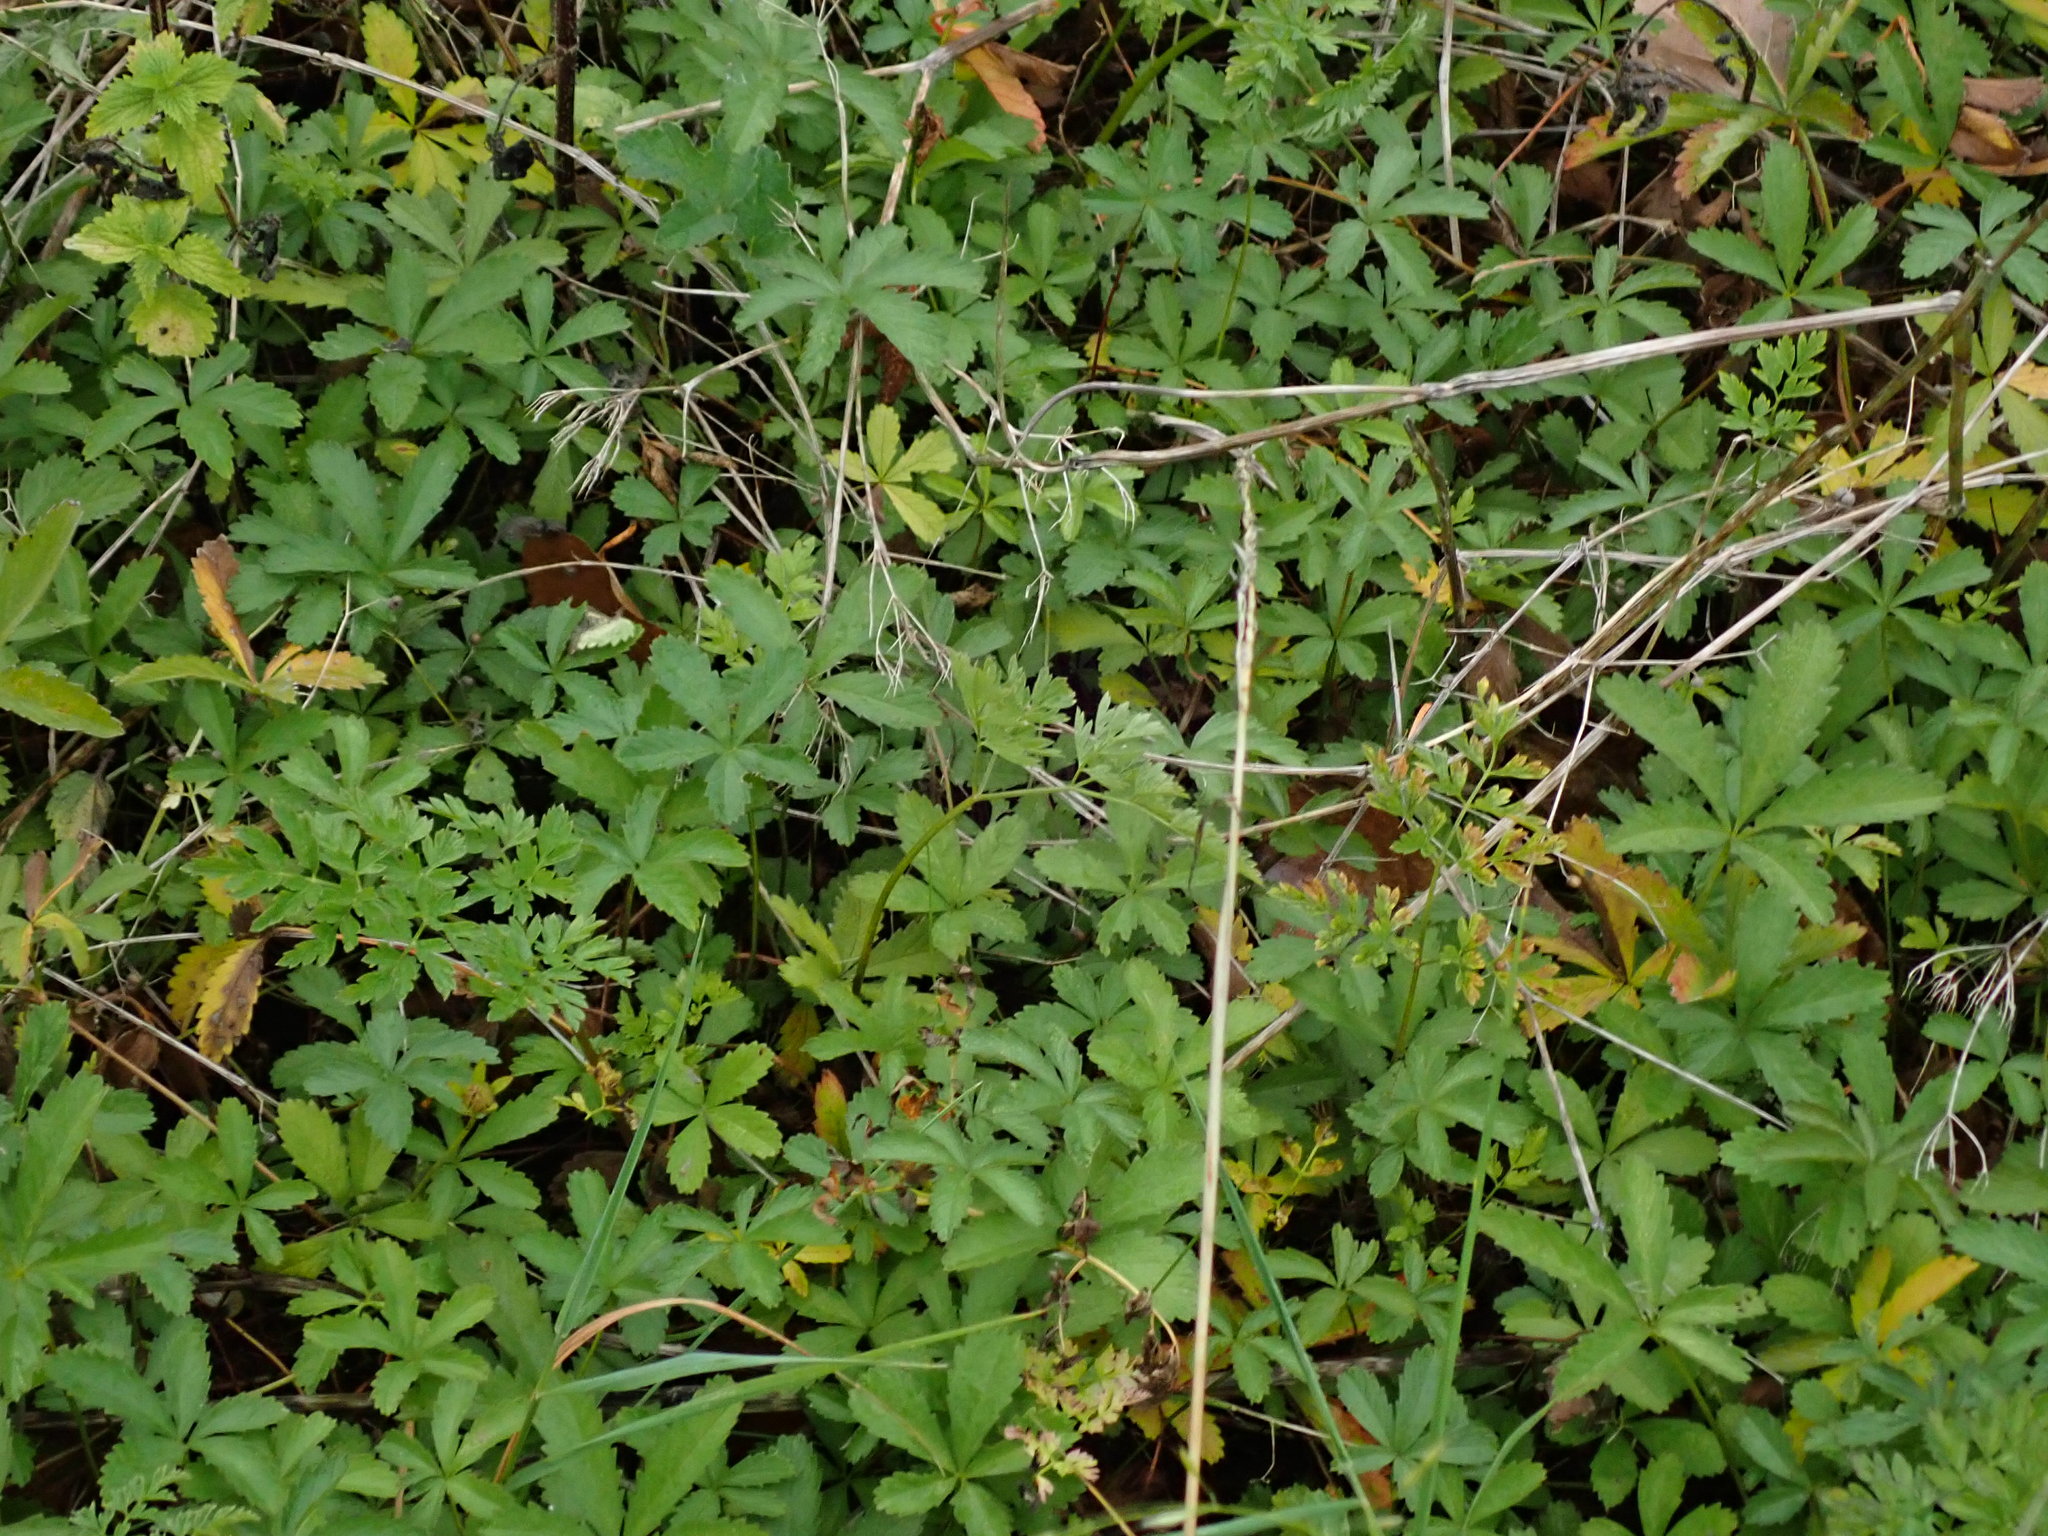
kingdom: Plantae
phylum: Tracheophyta
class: Magnoliopsida
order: Rosales
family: Rosaceae
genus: Potentilla
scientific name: Potentilla reptans
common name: Creeping cinquefoil
